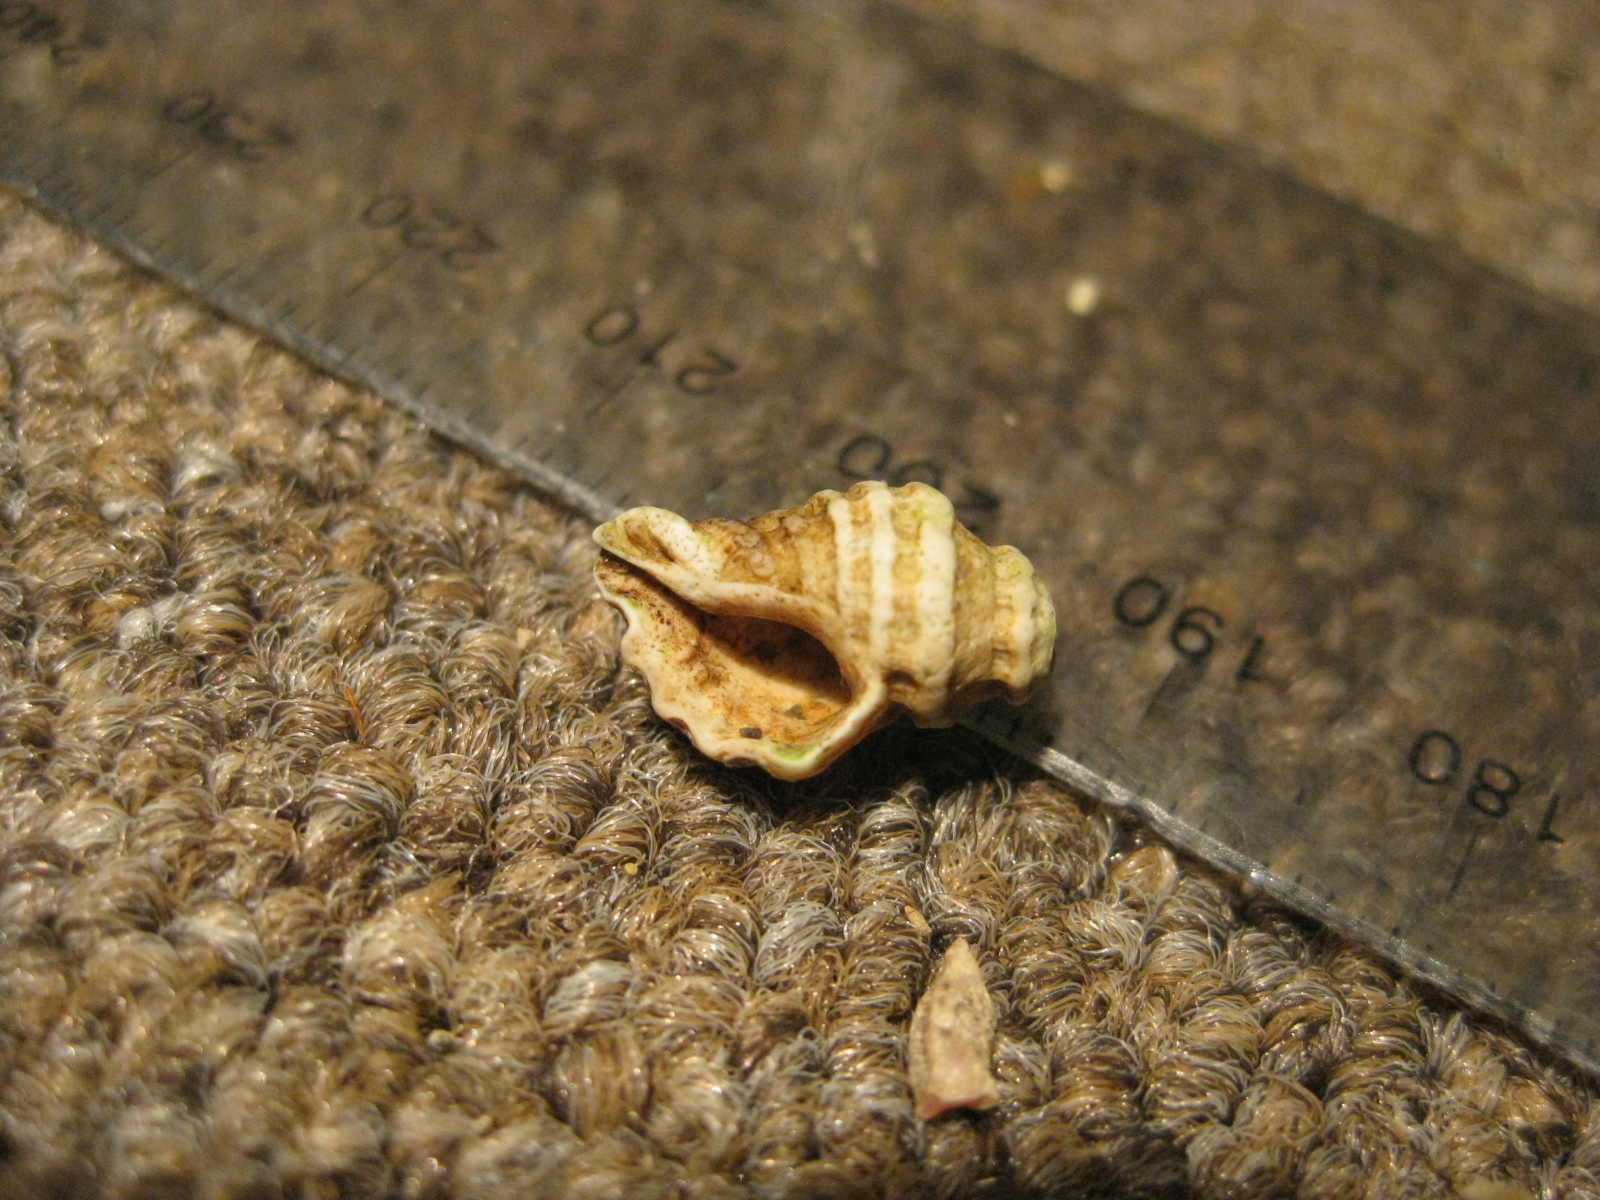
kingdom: Animalia
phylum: Mollusca
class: Gastropoda
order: Neogastropoda
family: Muricidae
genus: Paratrophon
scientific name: Paratrophon quoyi
